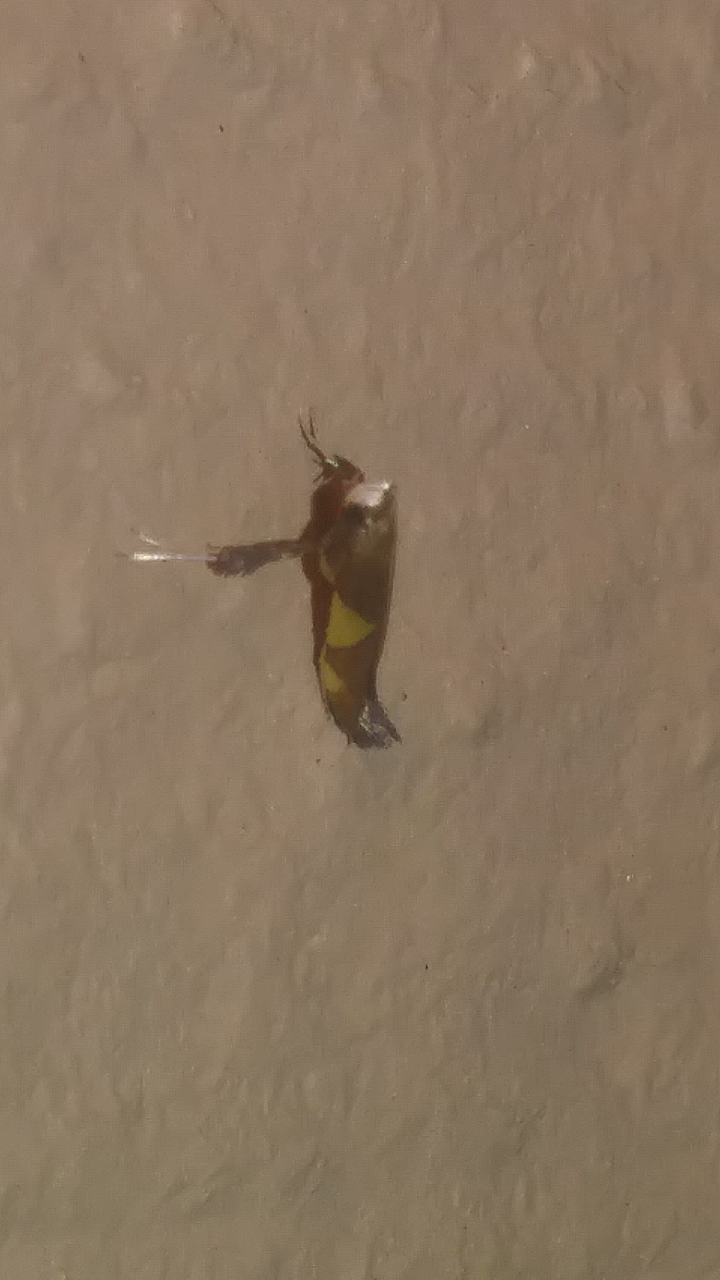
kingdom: Animalia
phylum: Arthropoda
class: Insecta
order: Lepidoptera
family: Gracillariidae
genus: Caloptilia
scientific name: Caloptilia bimaculatella
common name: Maple caloptilia moth
